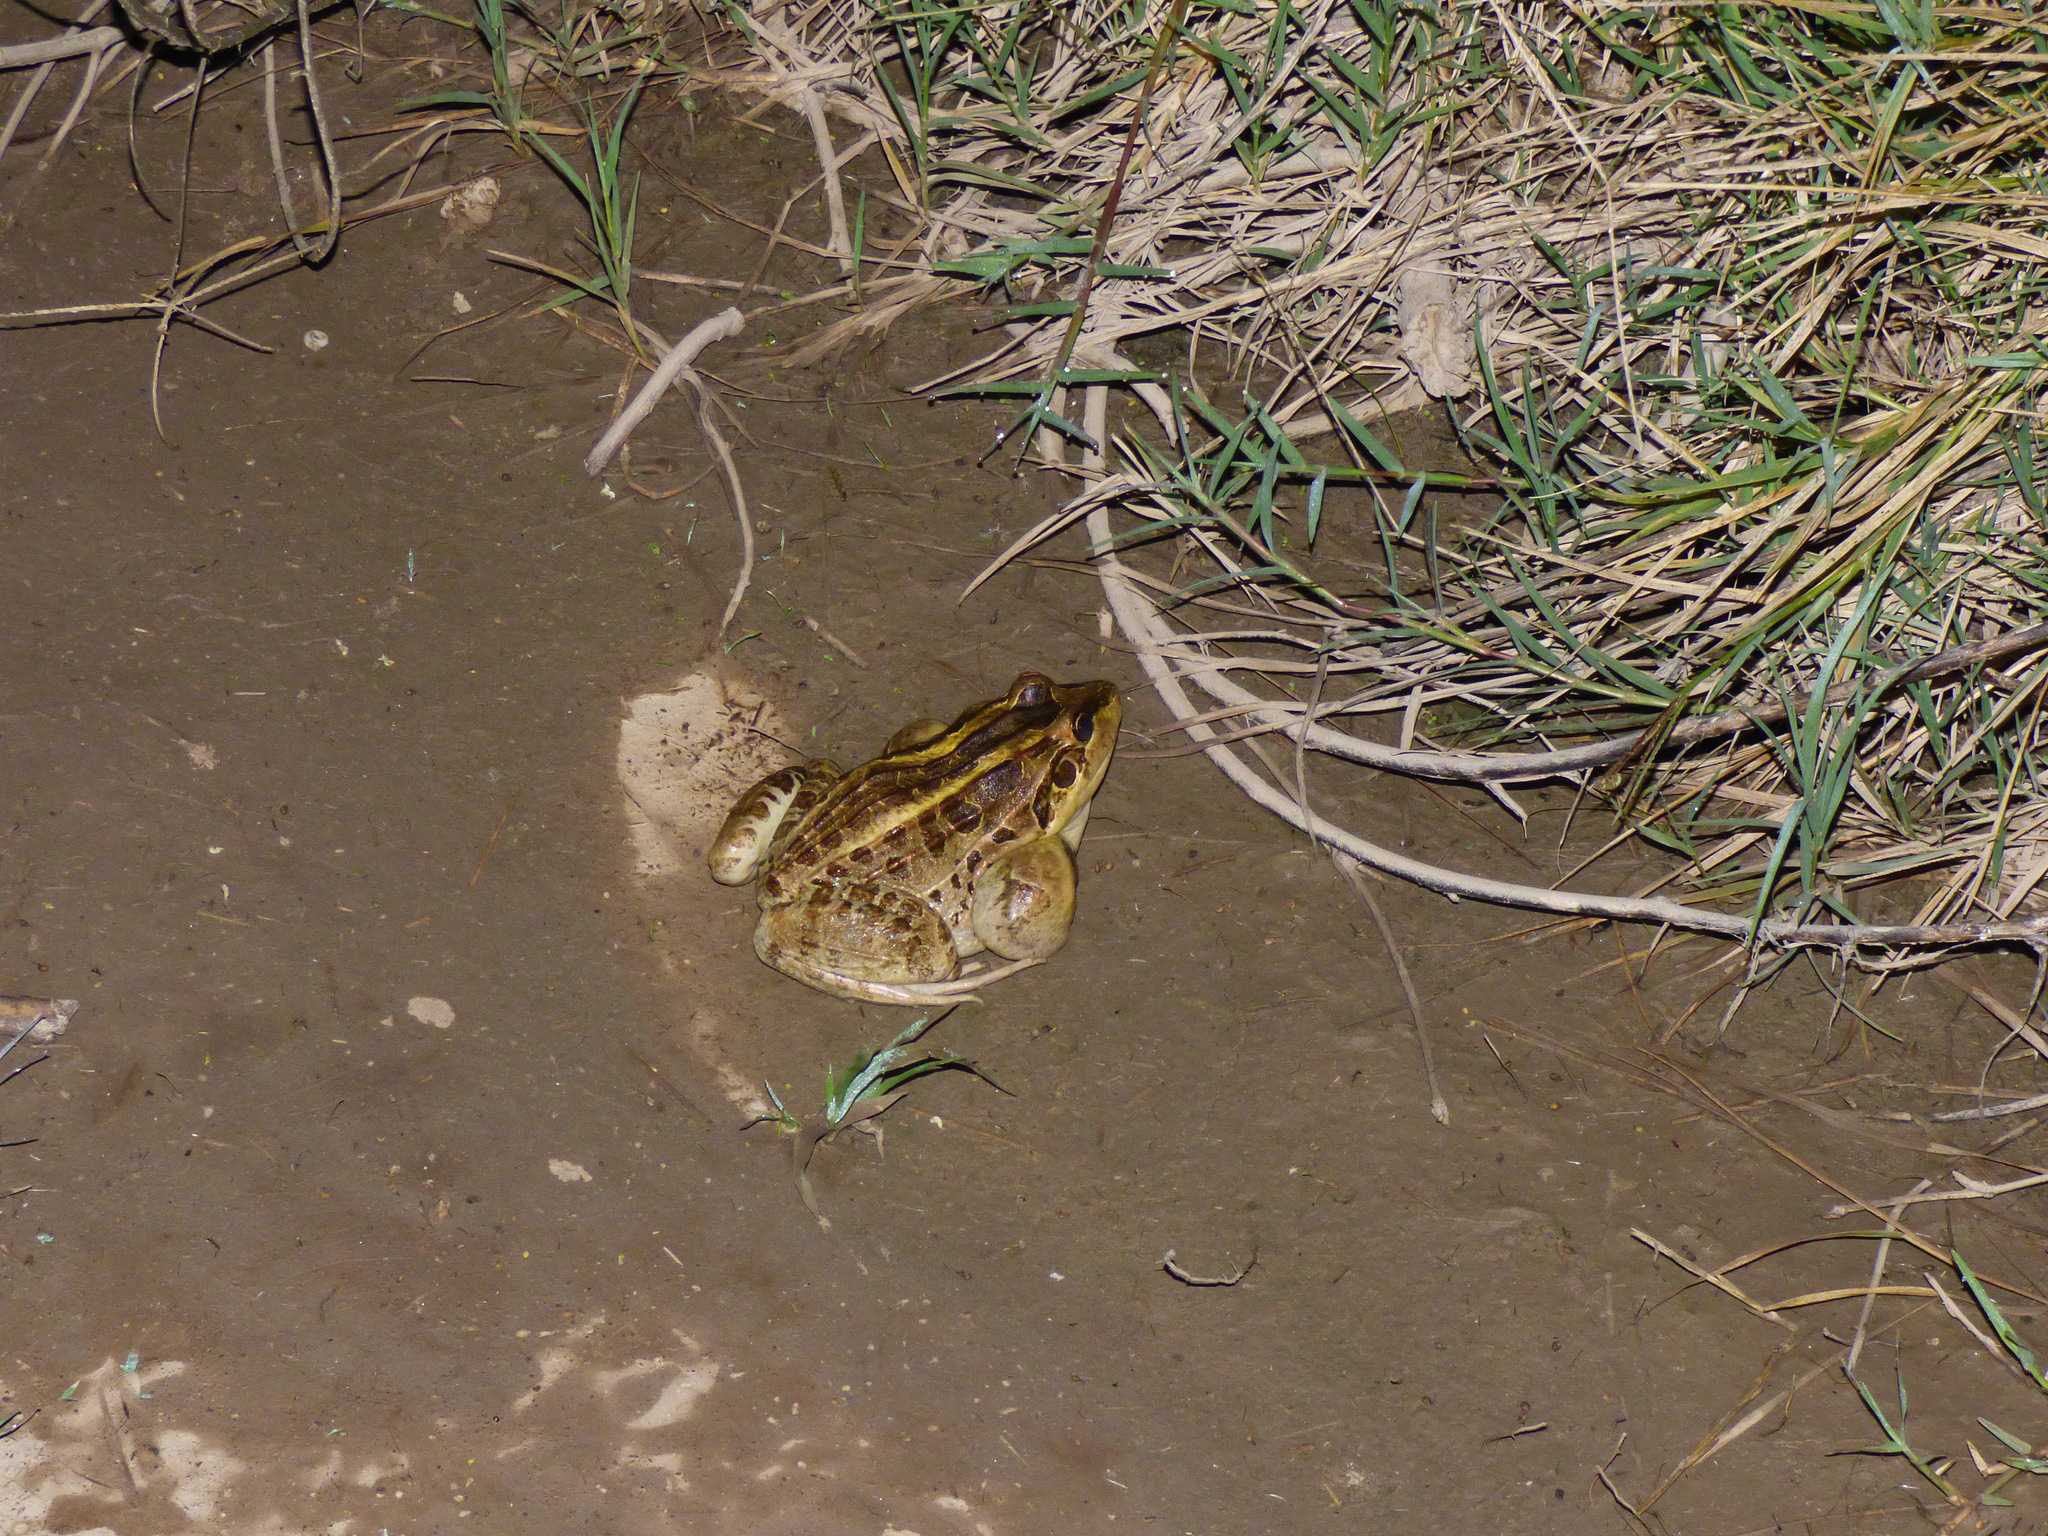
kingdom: Animalia
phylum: Chordata
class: Amphibia
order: Anura
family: Leptodactylidae
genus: Leptodactylus
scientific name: Leptodactylus luctator
